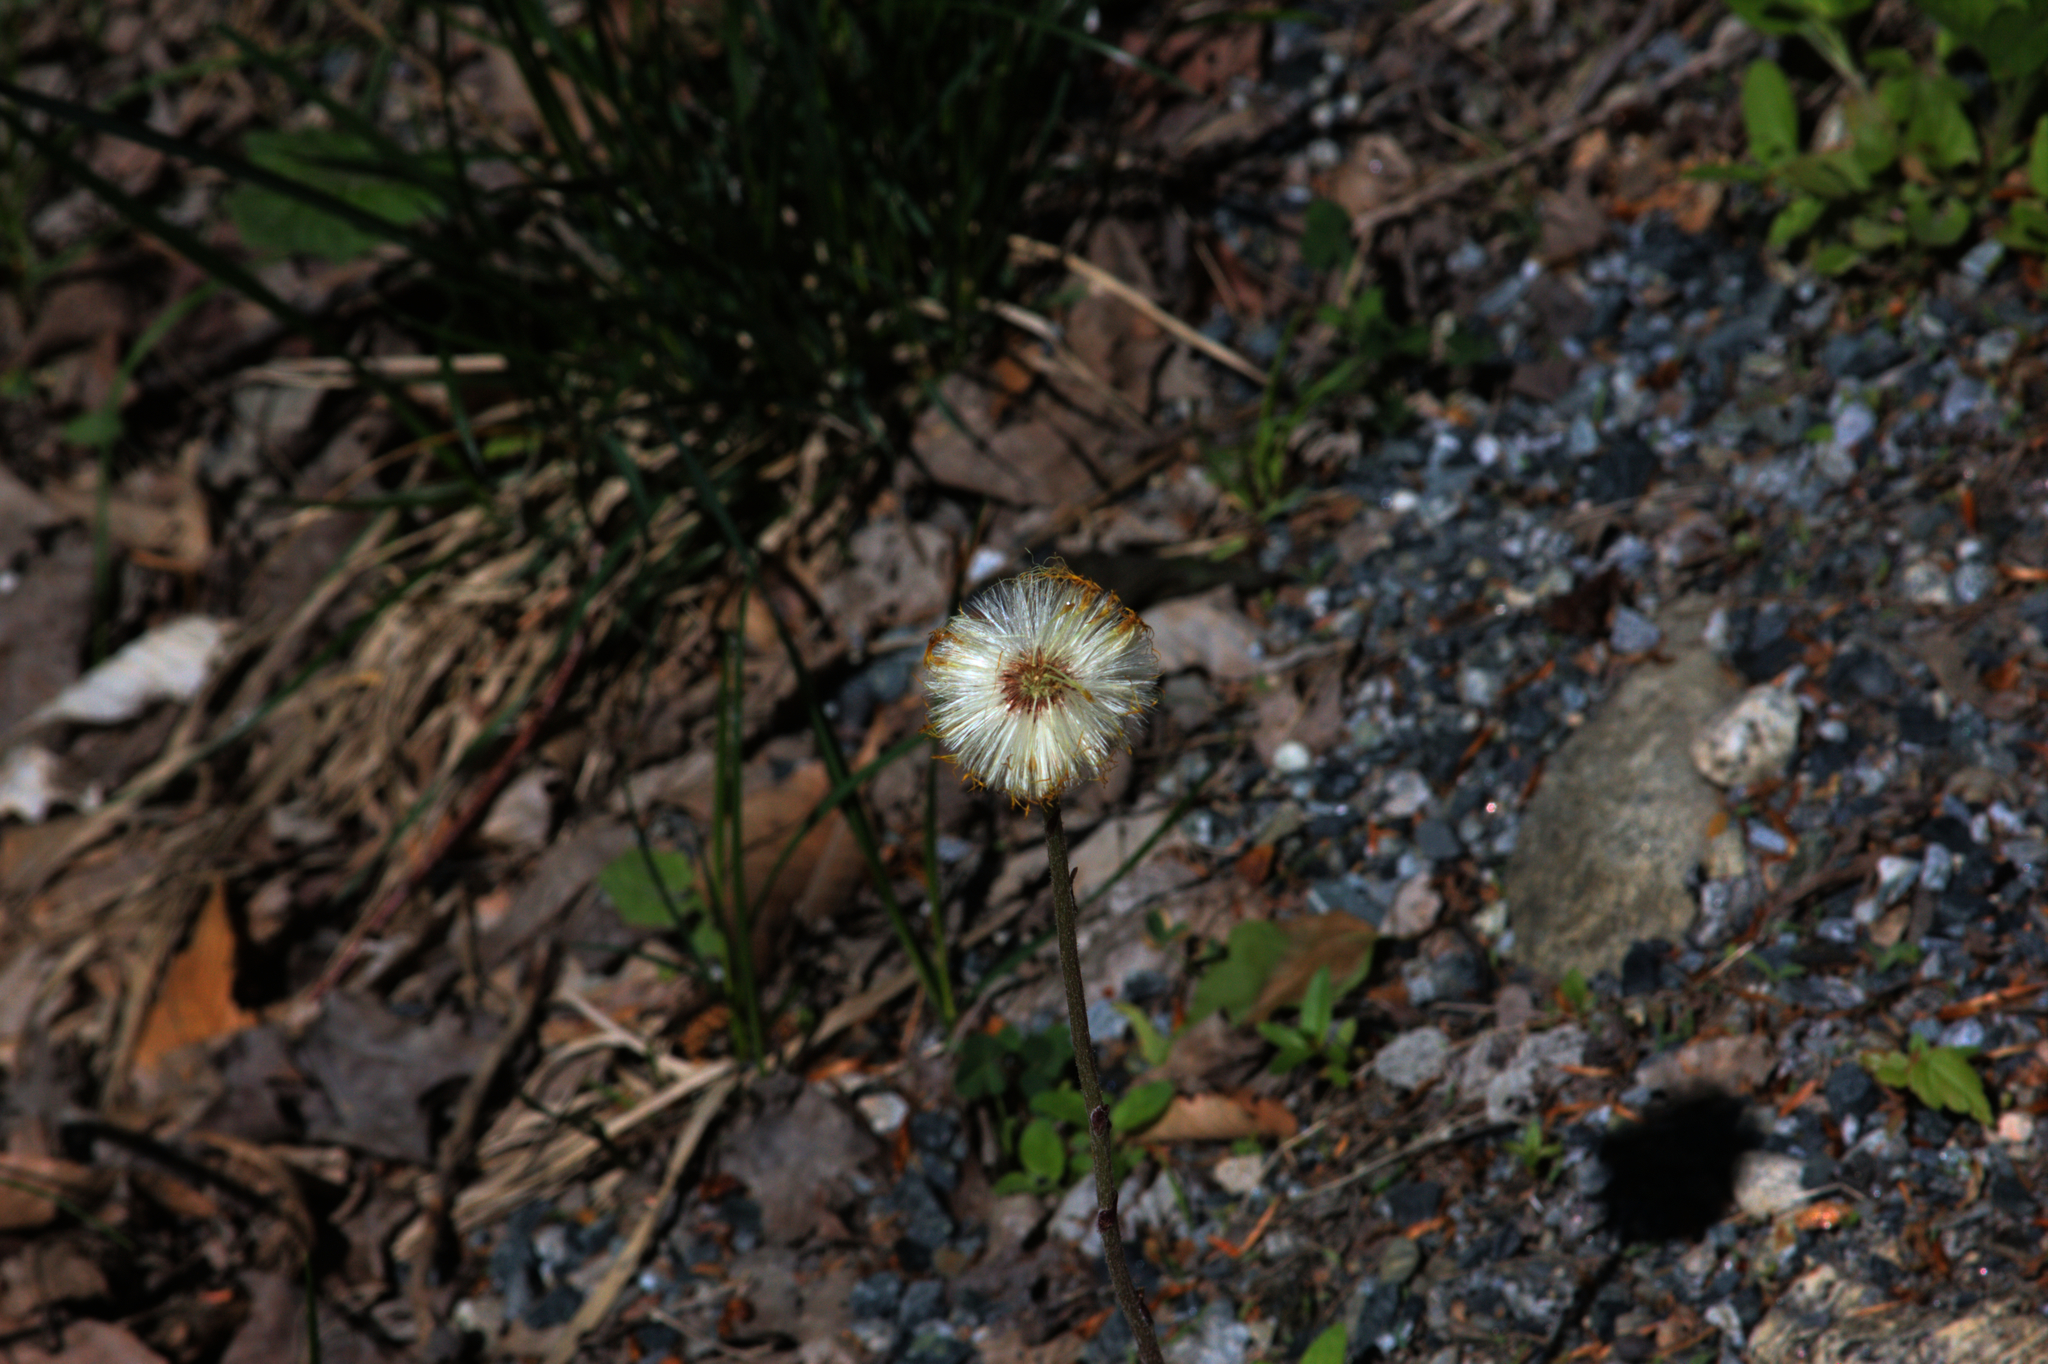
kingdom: Plantae
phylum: Tracheophyta
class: Magnoliopsida
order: Asterales
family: Asteraceae
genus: Tussilago
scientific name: Tussilago farfara
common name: Coltsfoot
